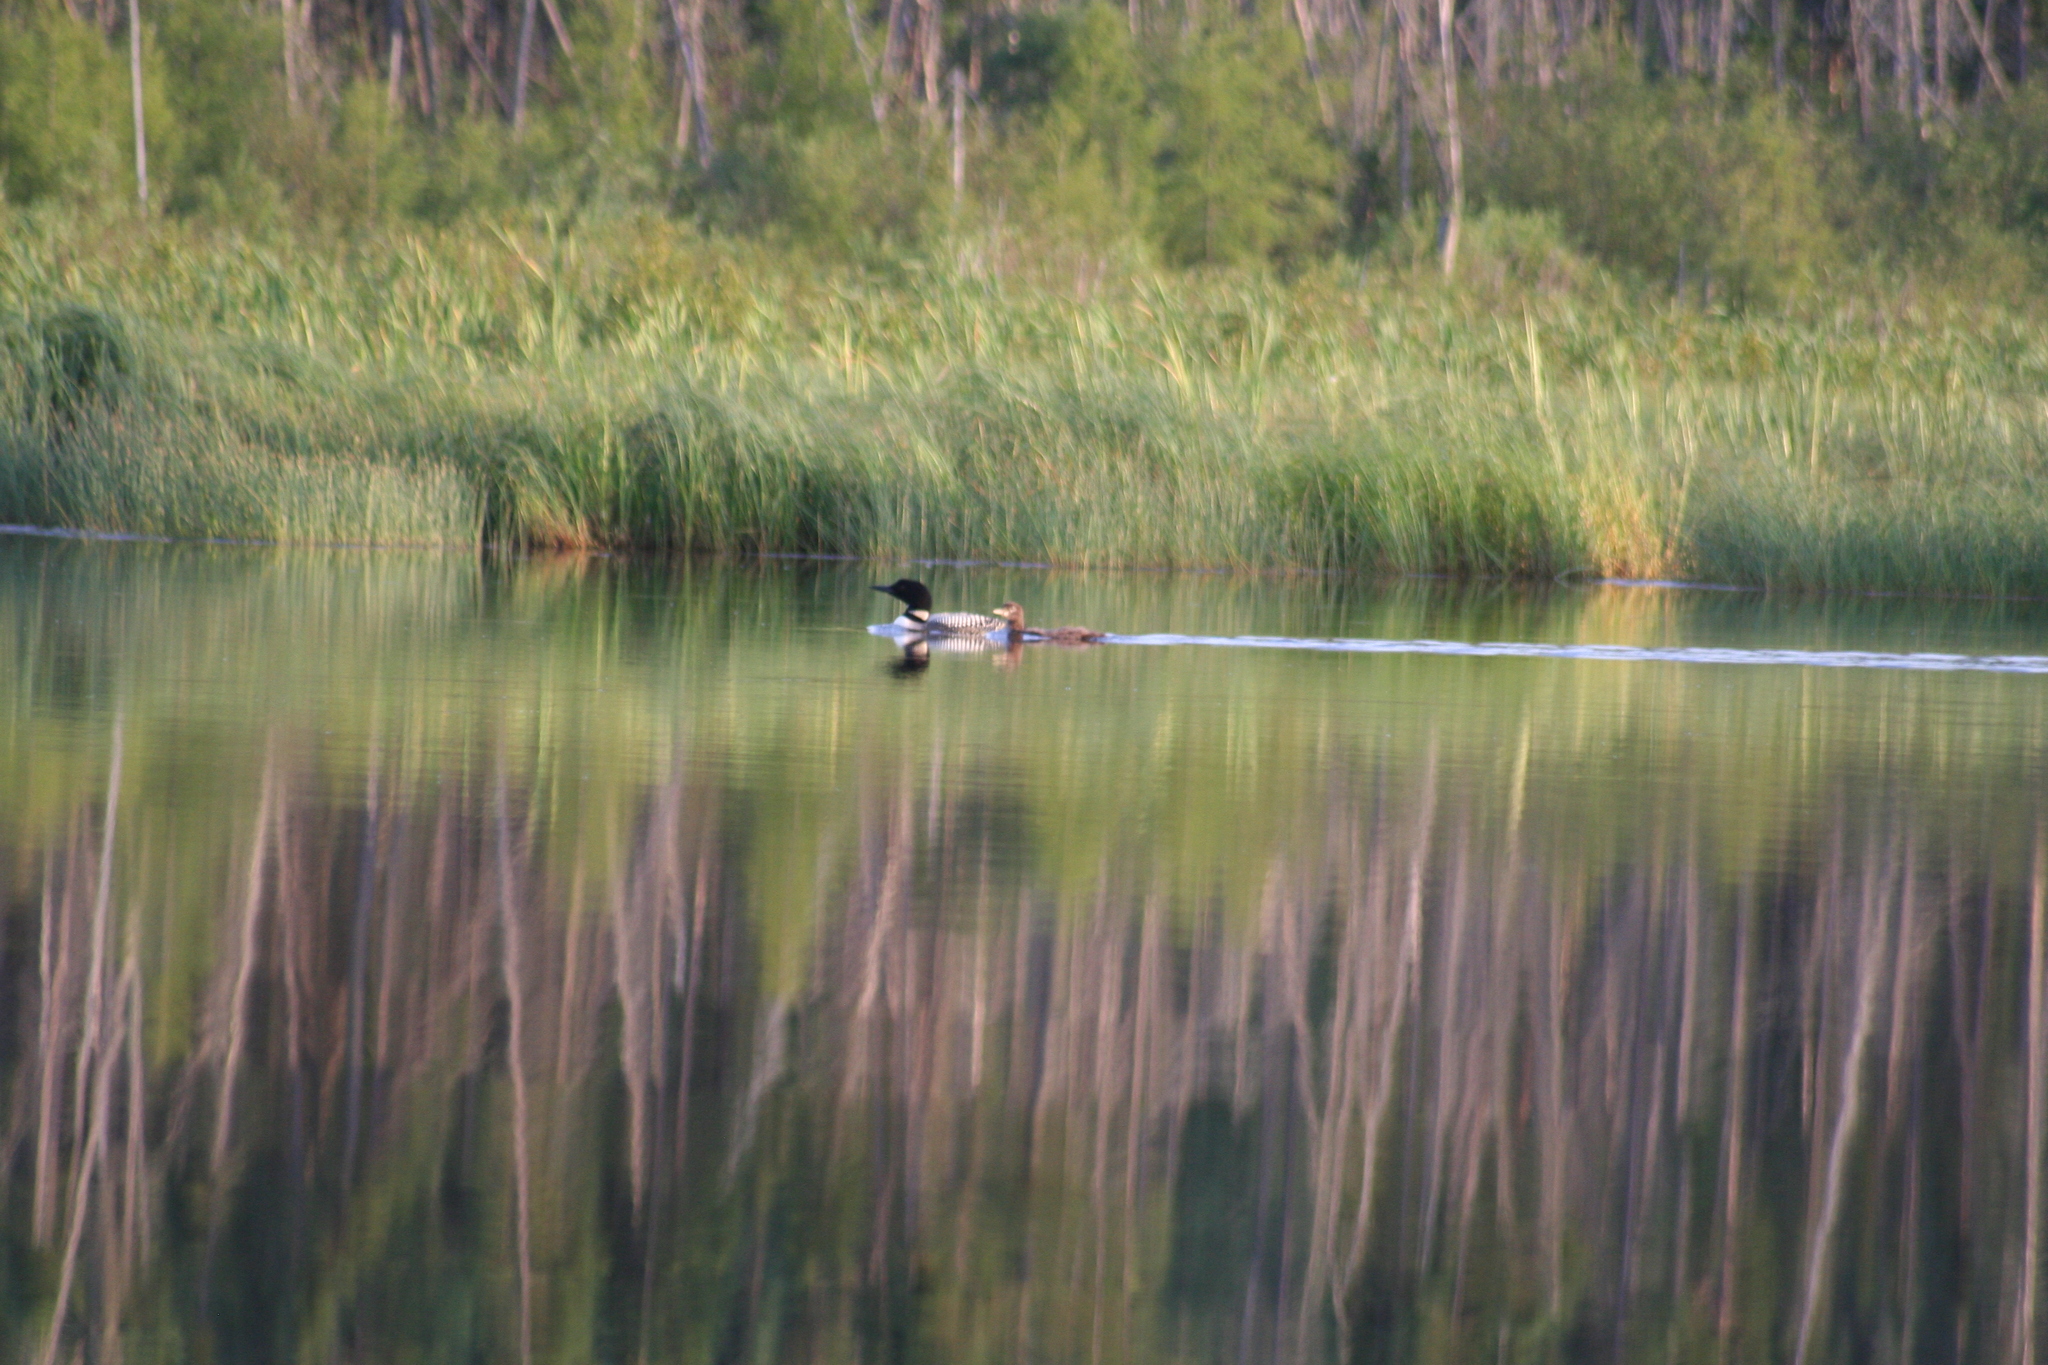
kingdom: Animalia
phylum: Chordata
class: Aves
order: Gaviiformes
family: Gaviidae
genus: Gavia
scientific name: Gavia immer
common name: Common loon
